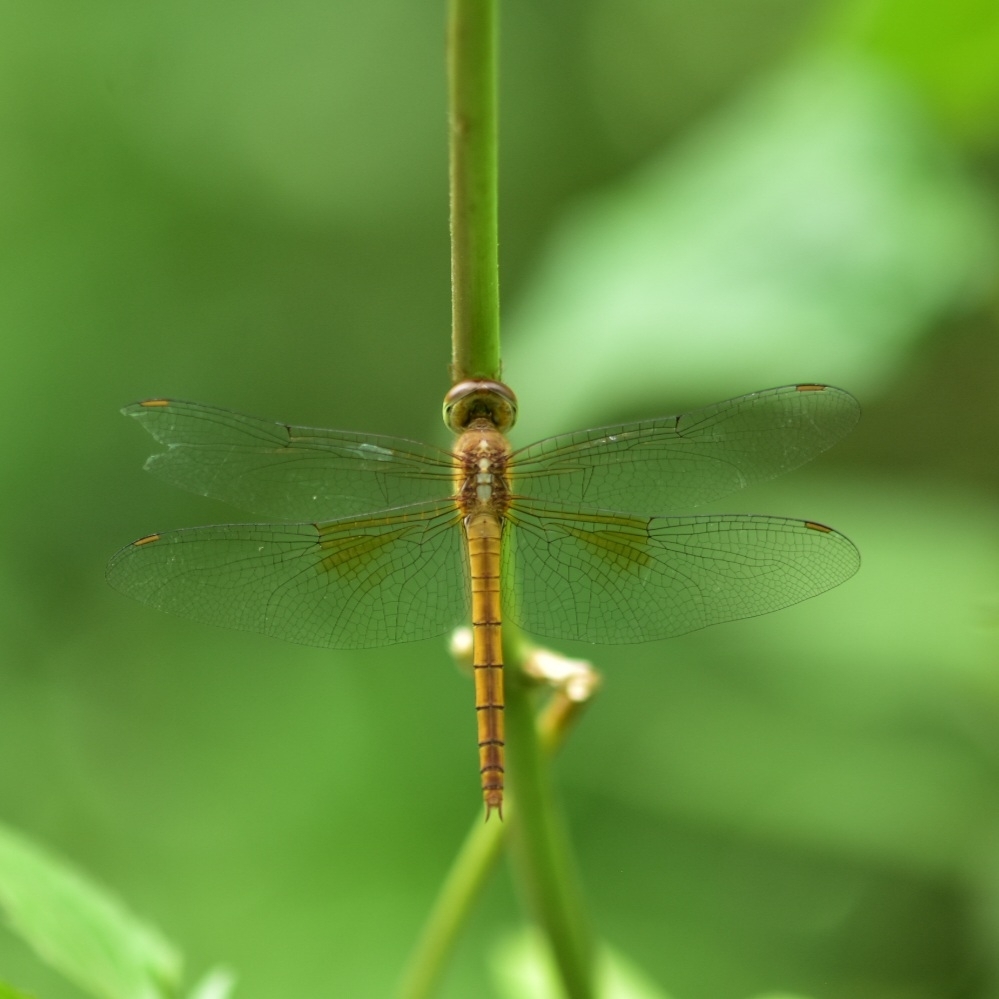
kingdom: Animalia
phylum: Arthropoda
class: Insecta
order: Odonata
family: Libellulidae
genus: Tholymis
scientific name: Tholymis tillarga
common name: Coral-tailed cloud wing
